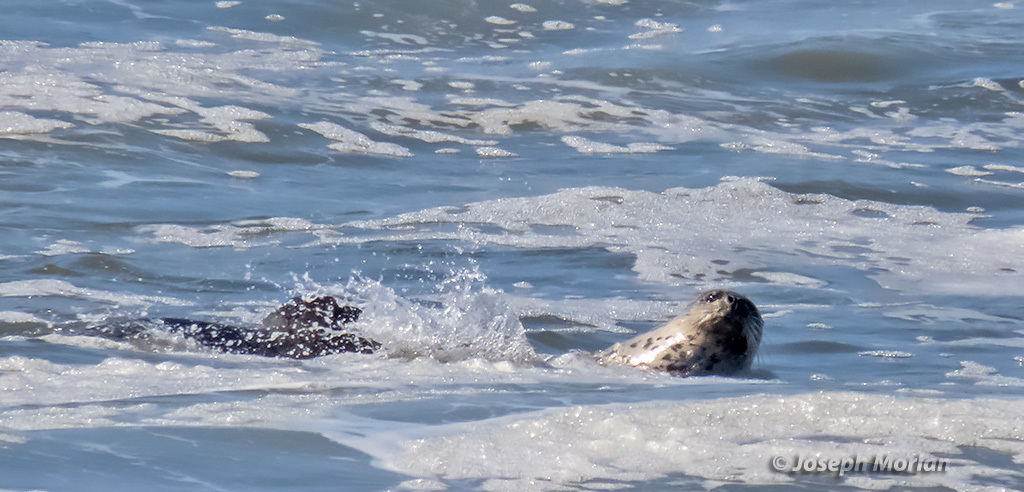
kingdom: Animalia
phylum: Chordata
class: Mammalia
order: Carnivora
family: Phocidae
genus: Phoca
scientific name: Phoca vitulina
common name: Harbor seal
